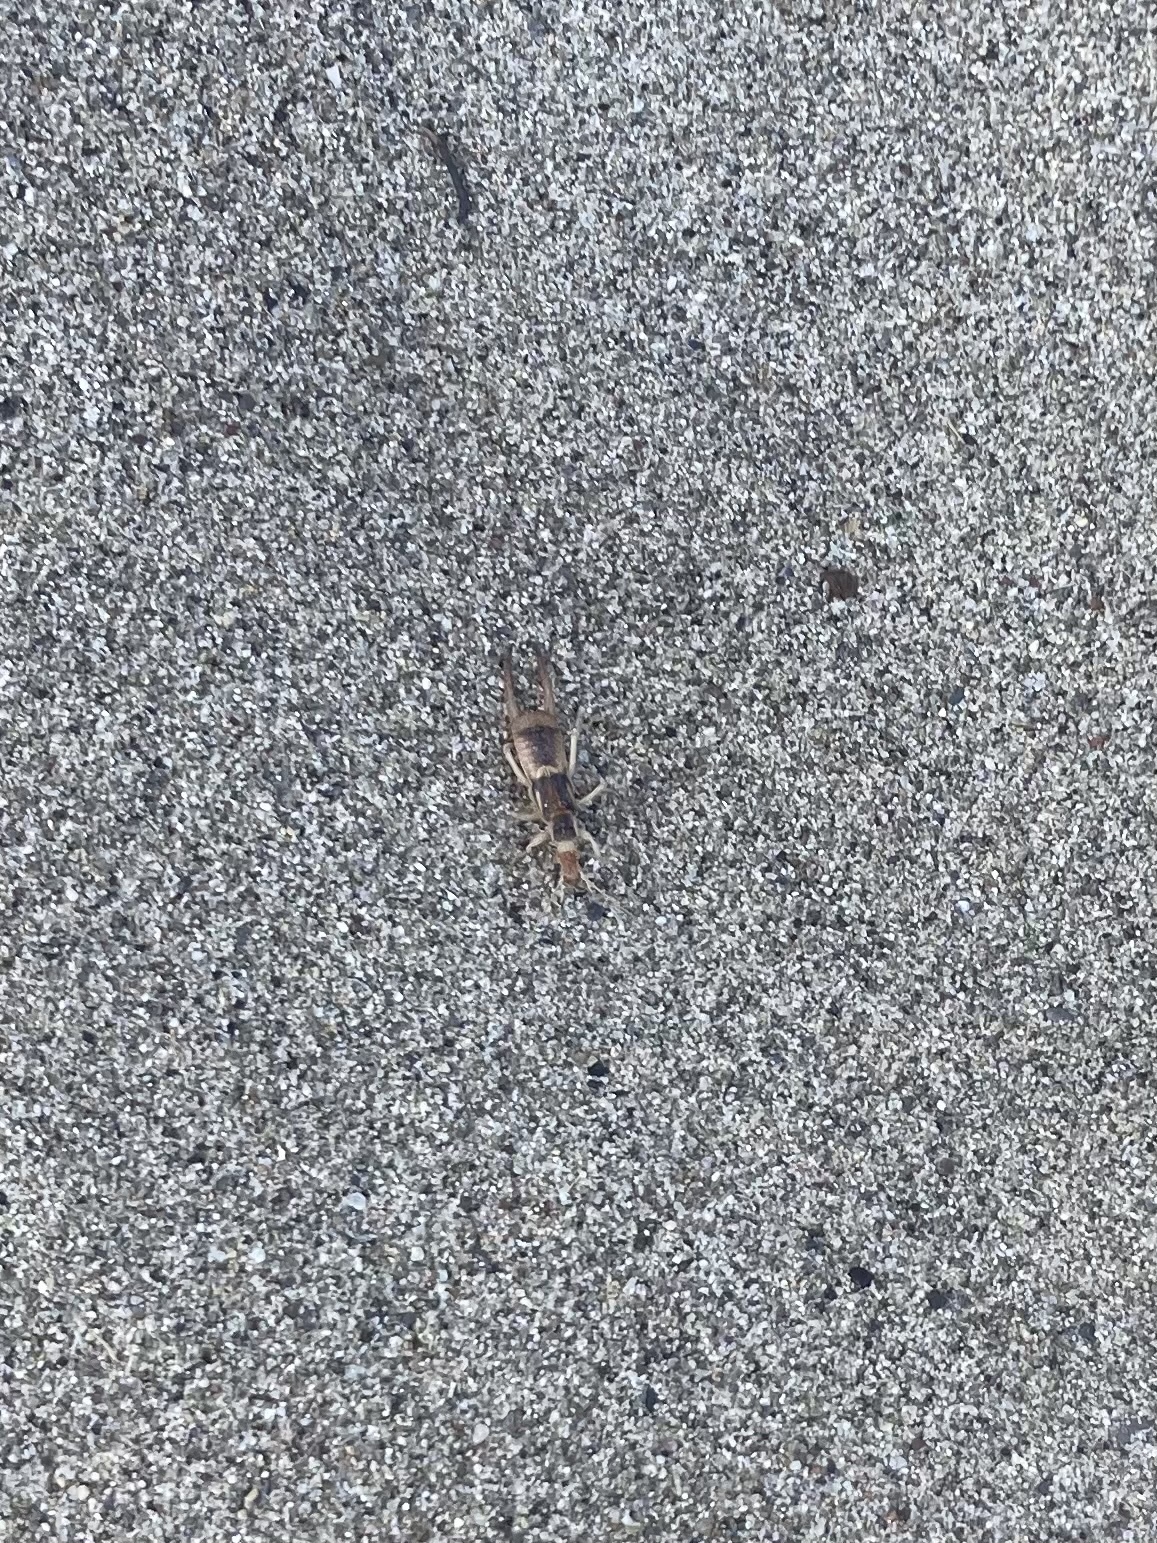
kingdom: Animalia
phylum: Arthropoda
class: Insecta
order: Dermaptera
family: Labiduridae
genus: Labidura
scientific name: Labidura riparia
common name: Striped earwig
